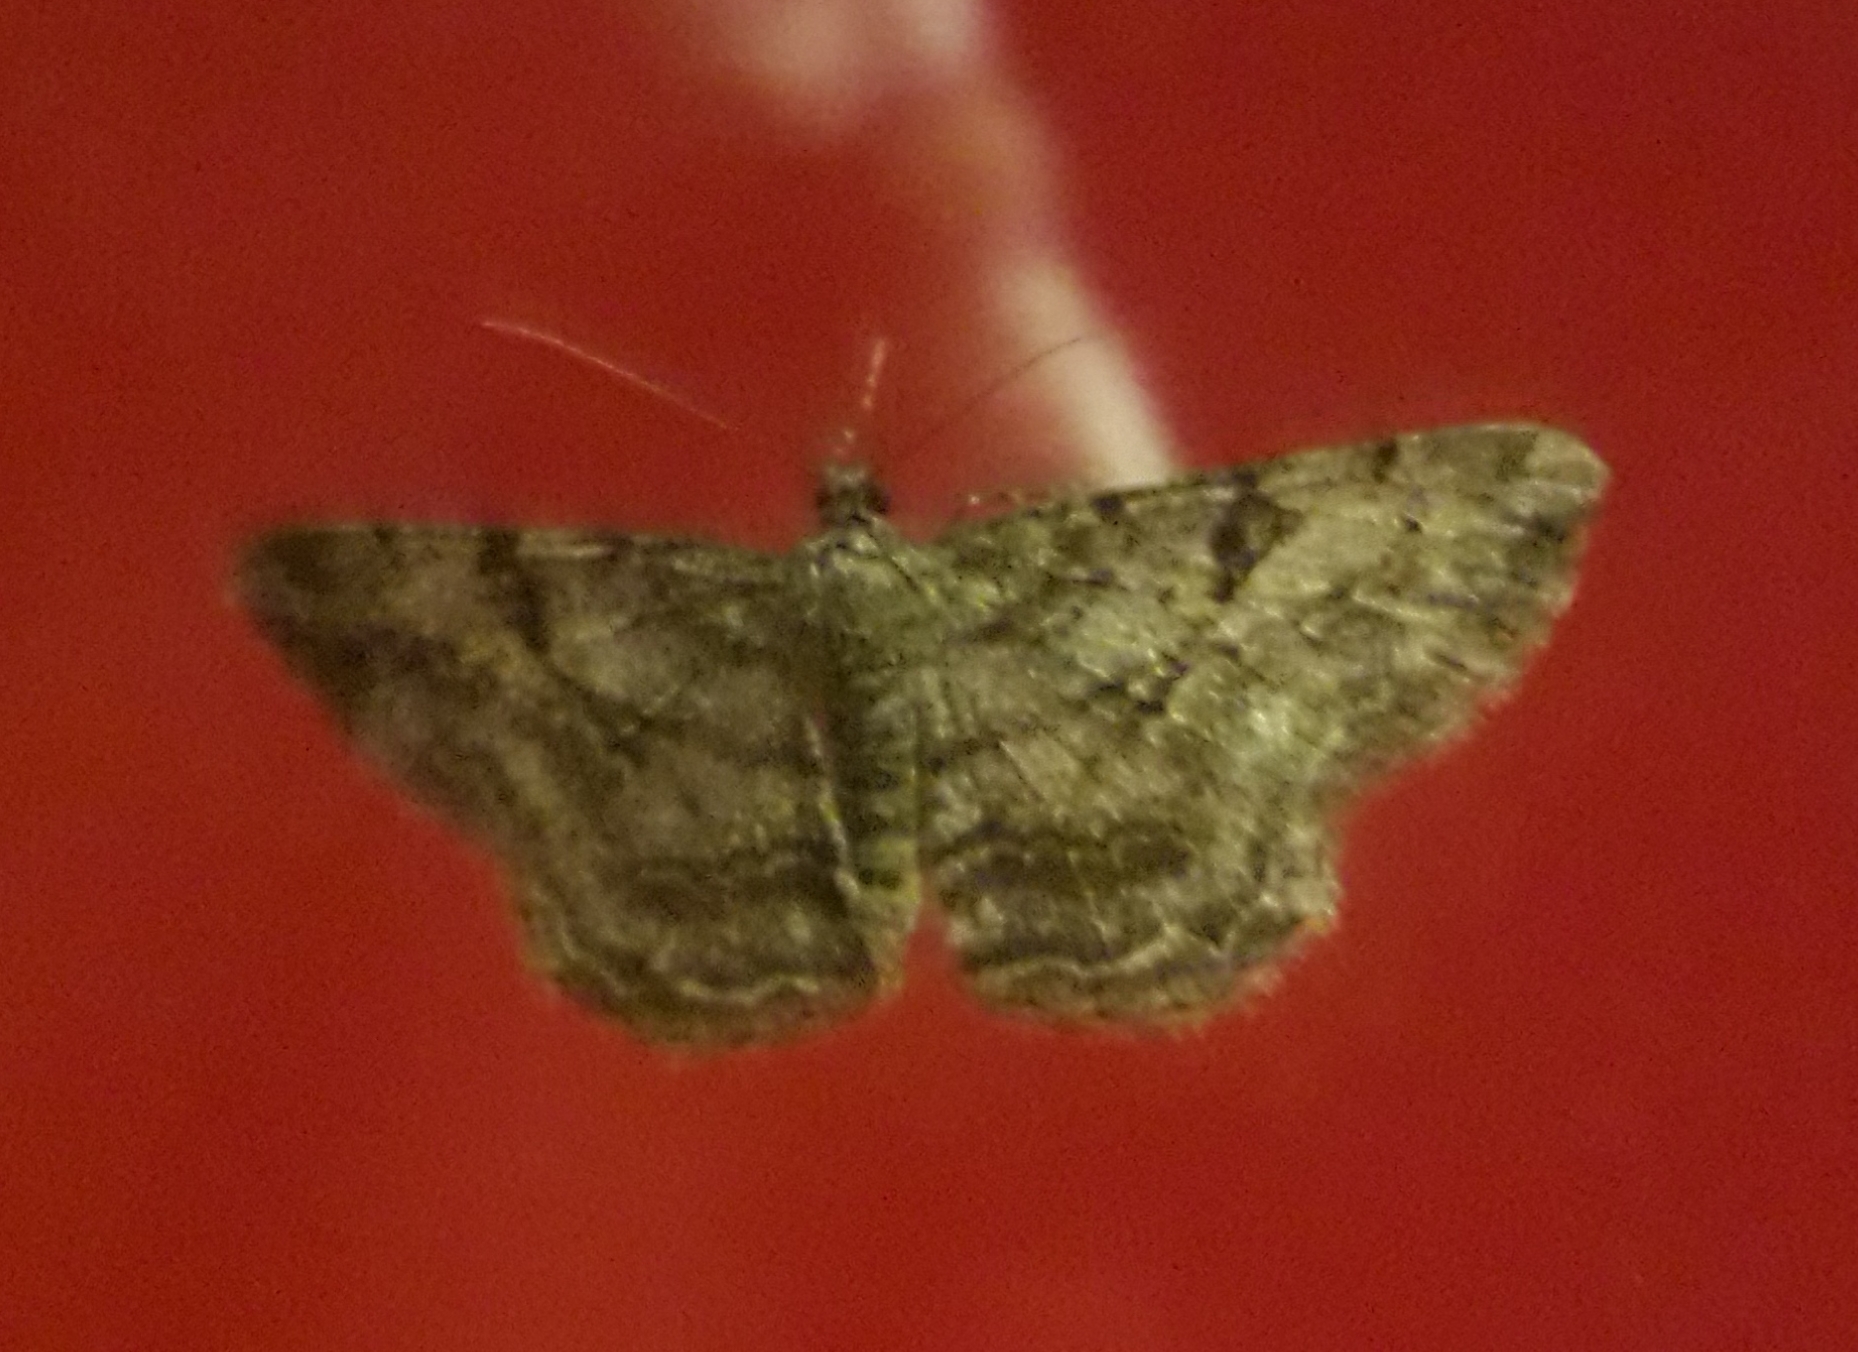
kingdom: Animalia
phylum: Arthropoda
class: Insecta
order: Lepidoptera
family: Geometridae
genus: Peribatodes
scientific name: Peribatodes rhomboidaria
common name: Willow beauty
